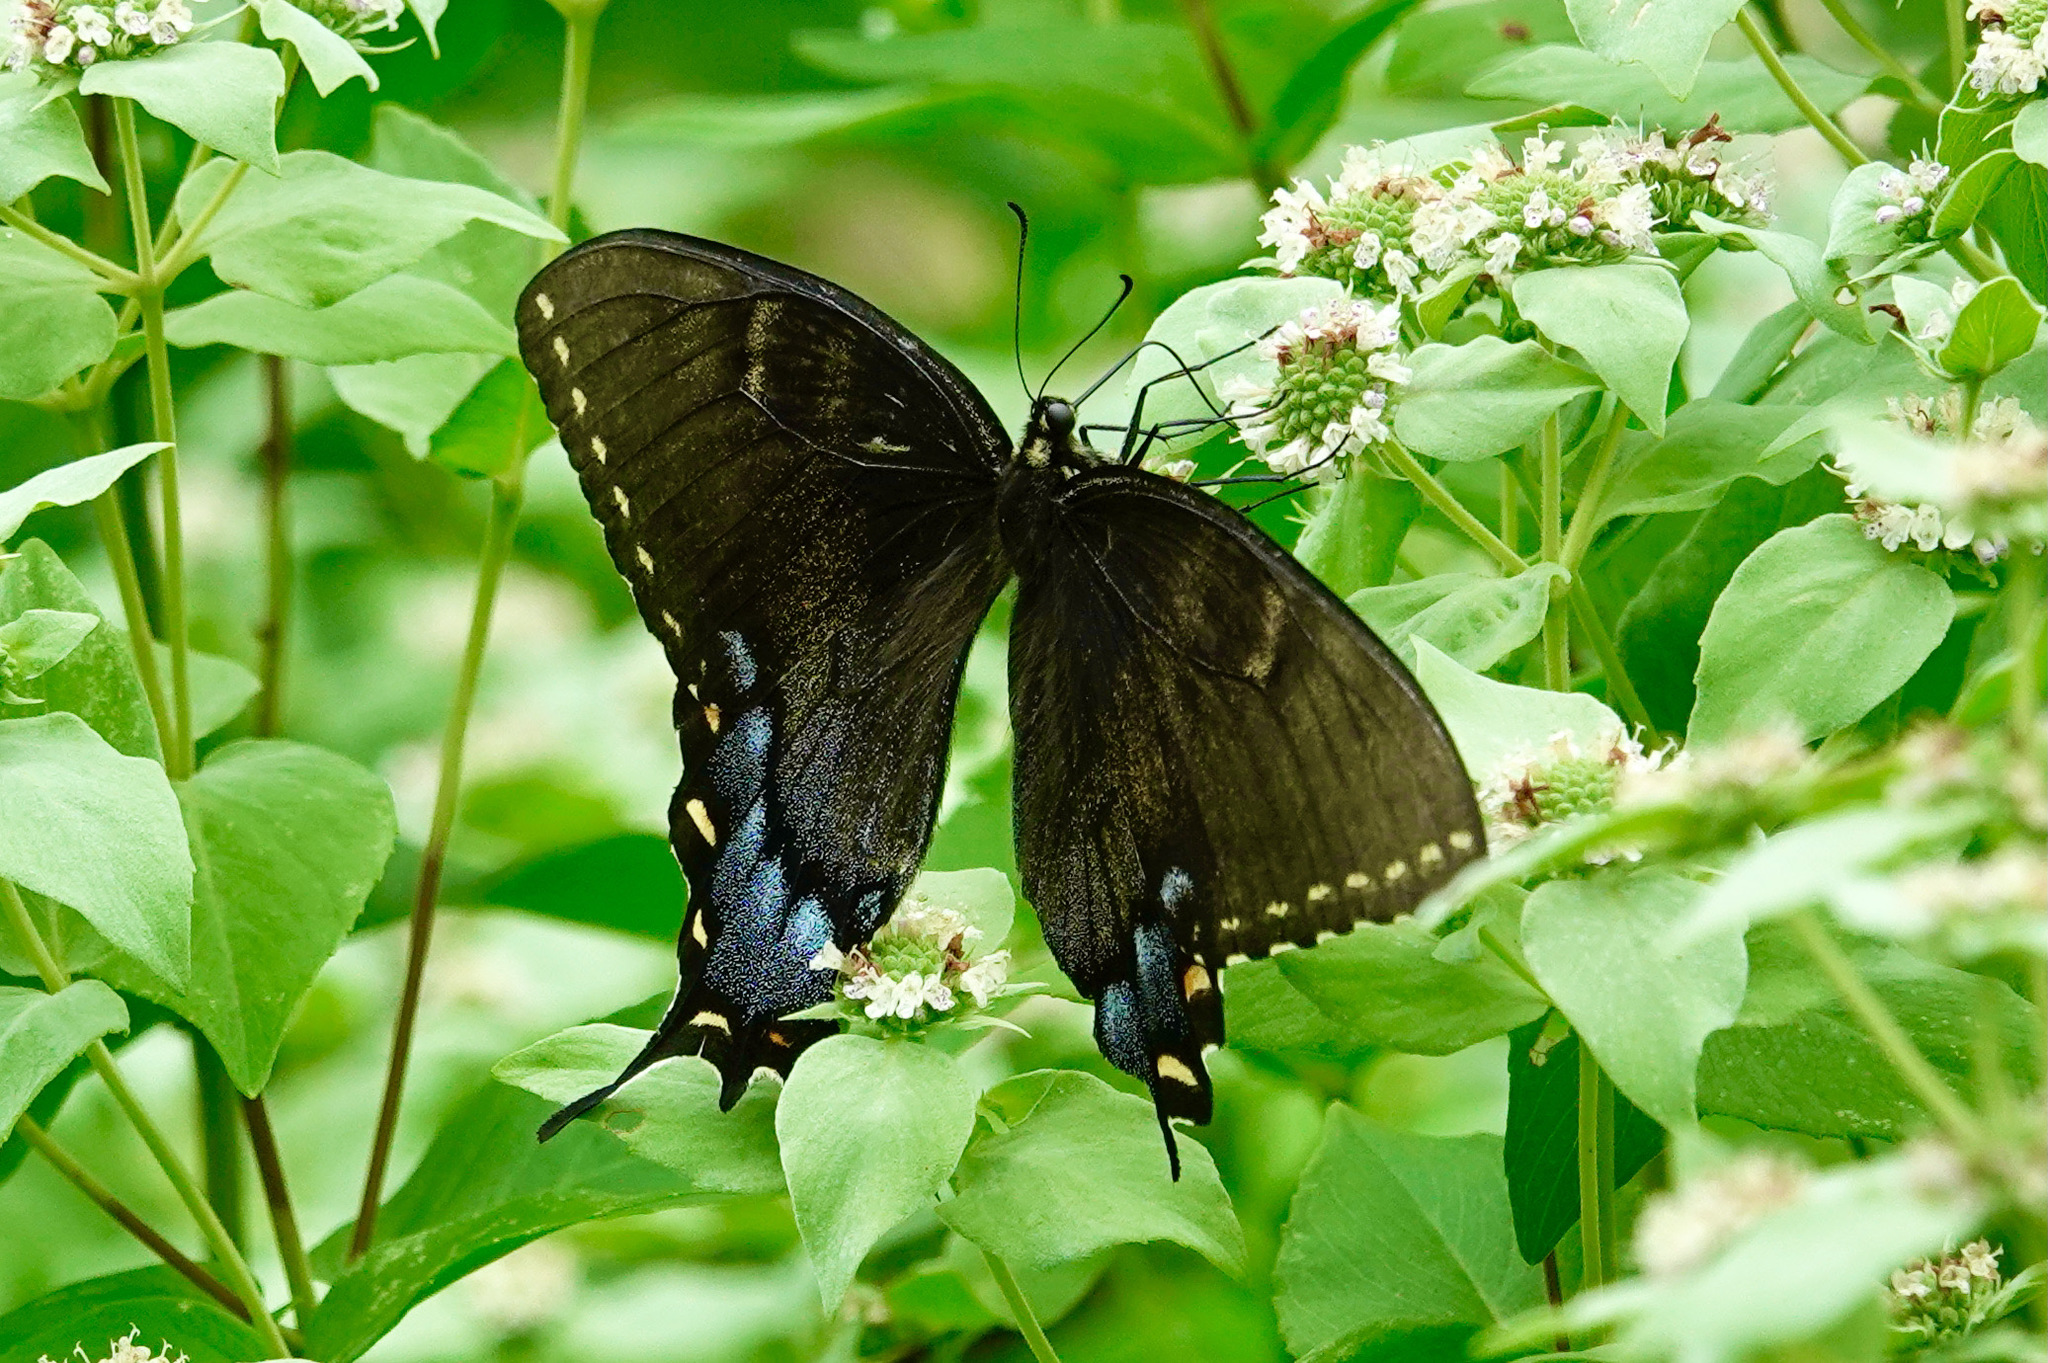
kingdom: Animalia
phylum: Arthropoda
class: Insecta
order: Lepidoptera
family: Papilionidae
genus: Papilio
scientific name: Papilio glaucus
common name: Tiger swallowtail
